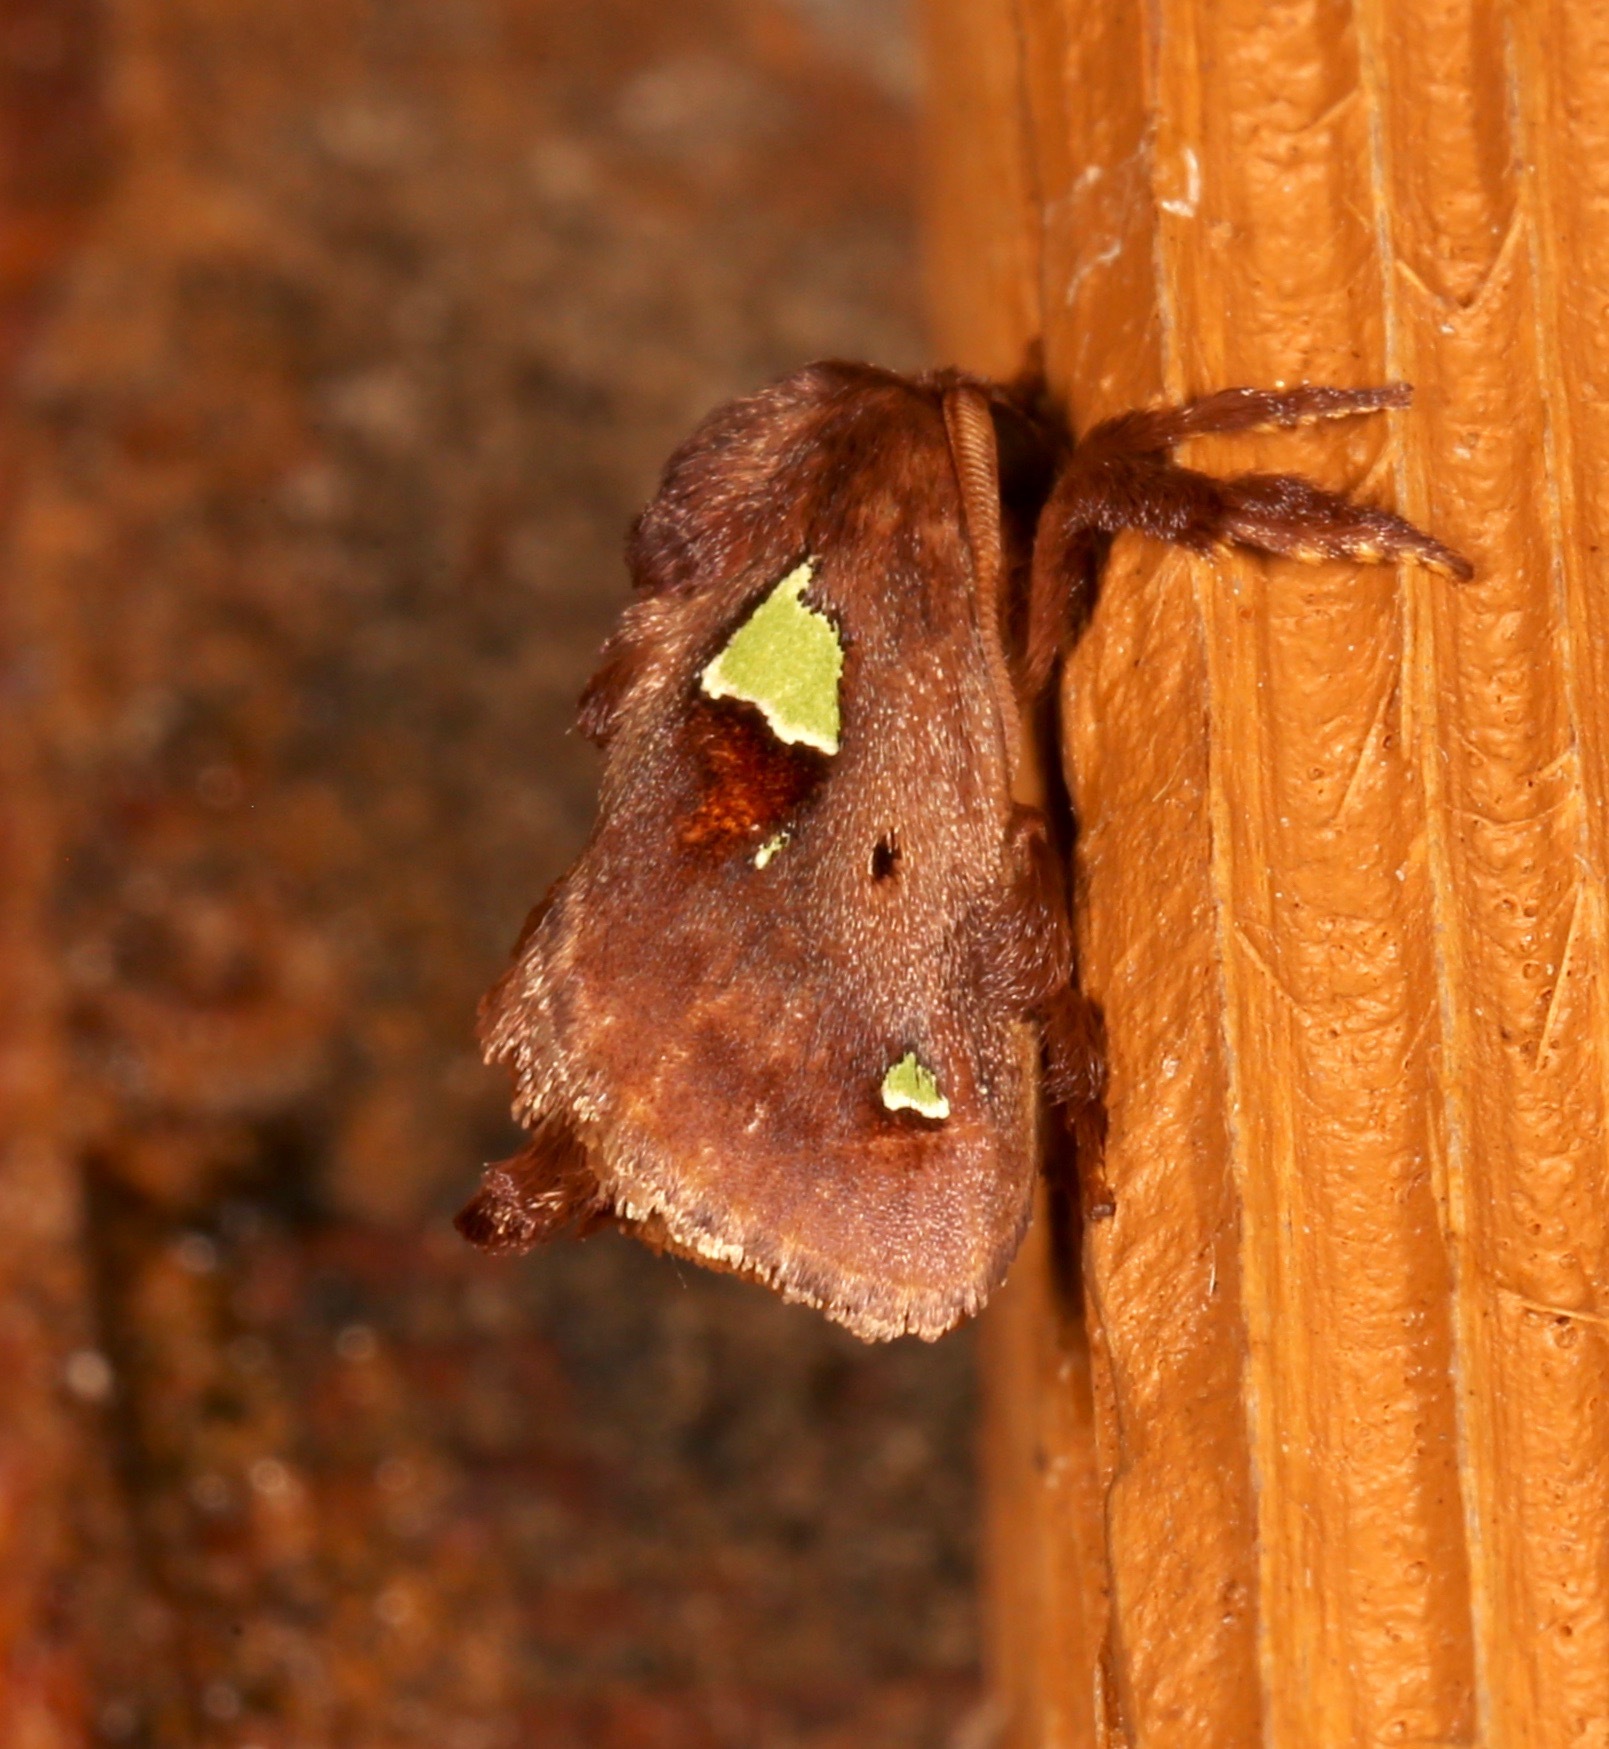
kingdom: Animalia
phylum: Arthropoda
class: Insecta
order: Lepidoptera
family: Limacodidae
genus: Euclea
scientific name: Euclea delphinii
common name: Spiny oak-slug moth
